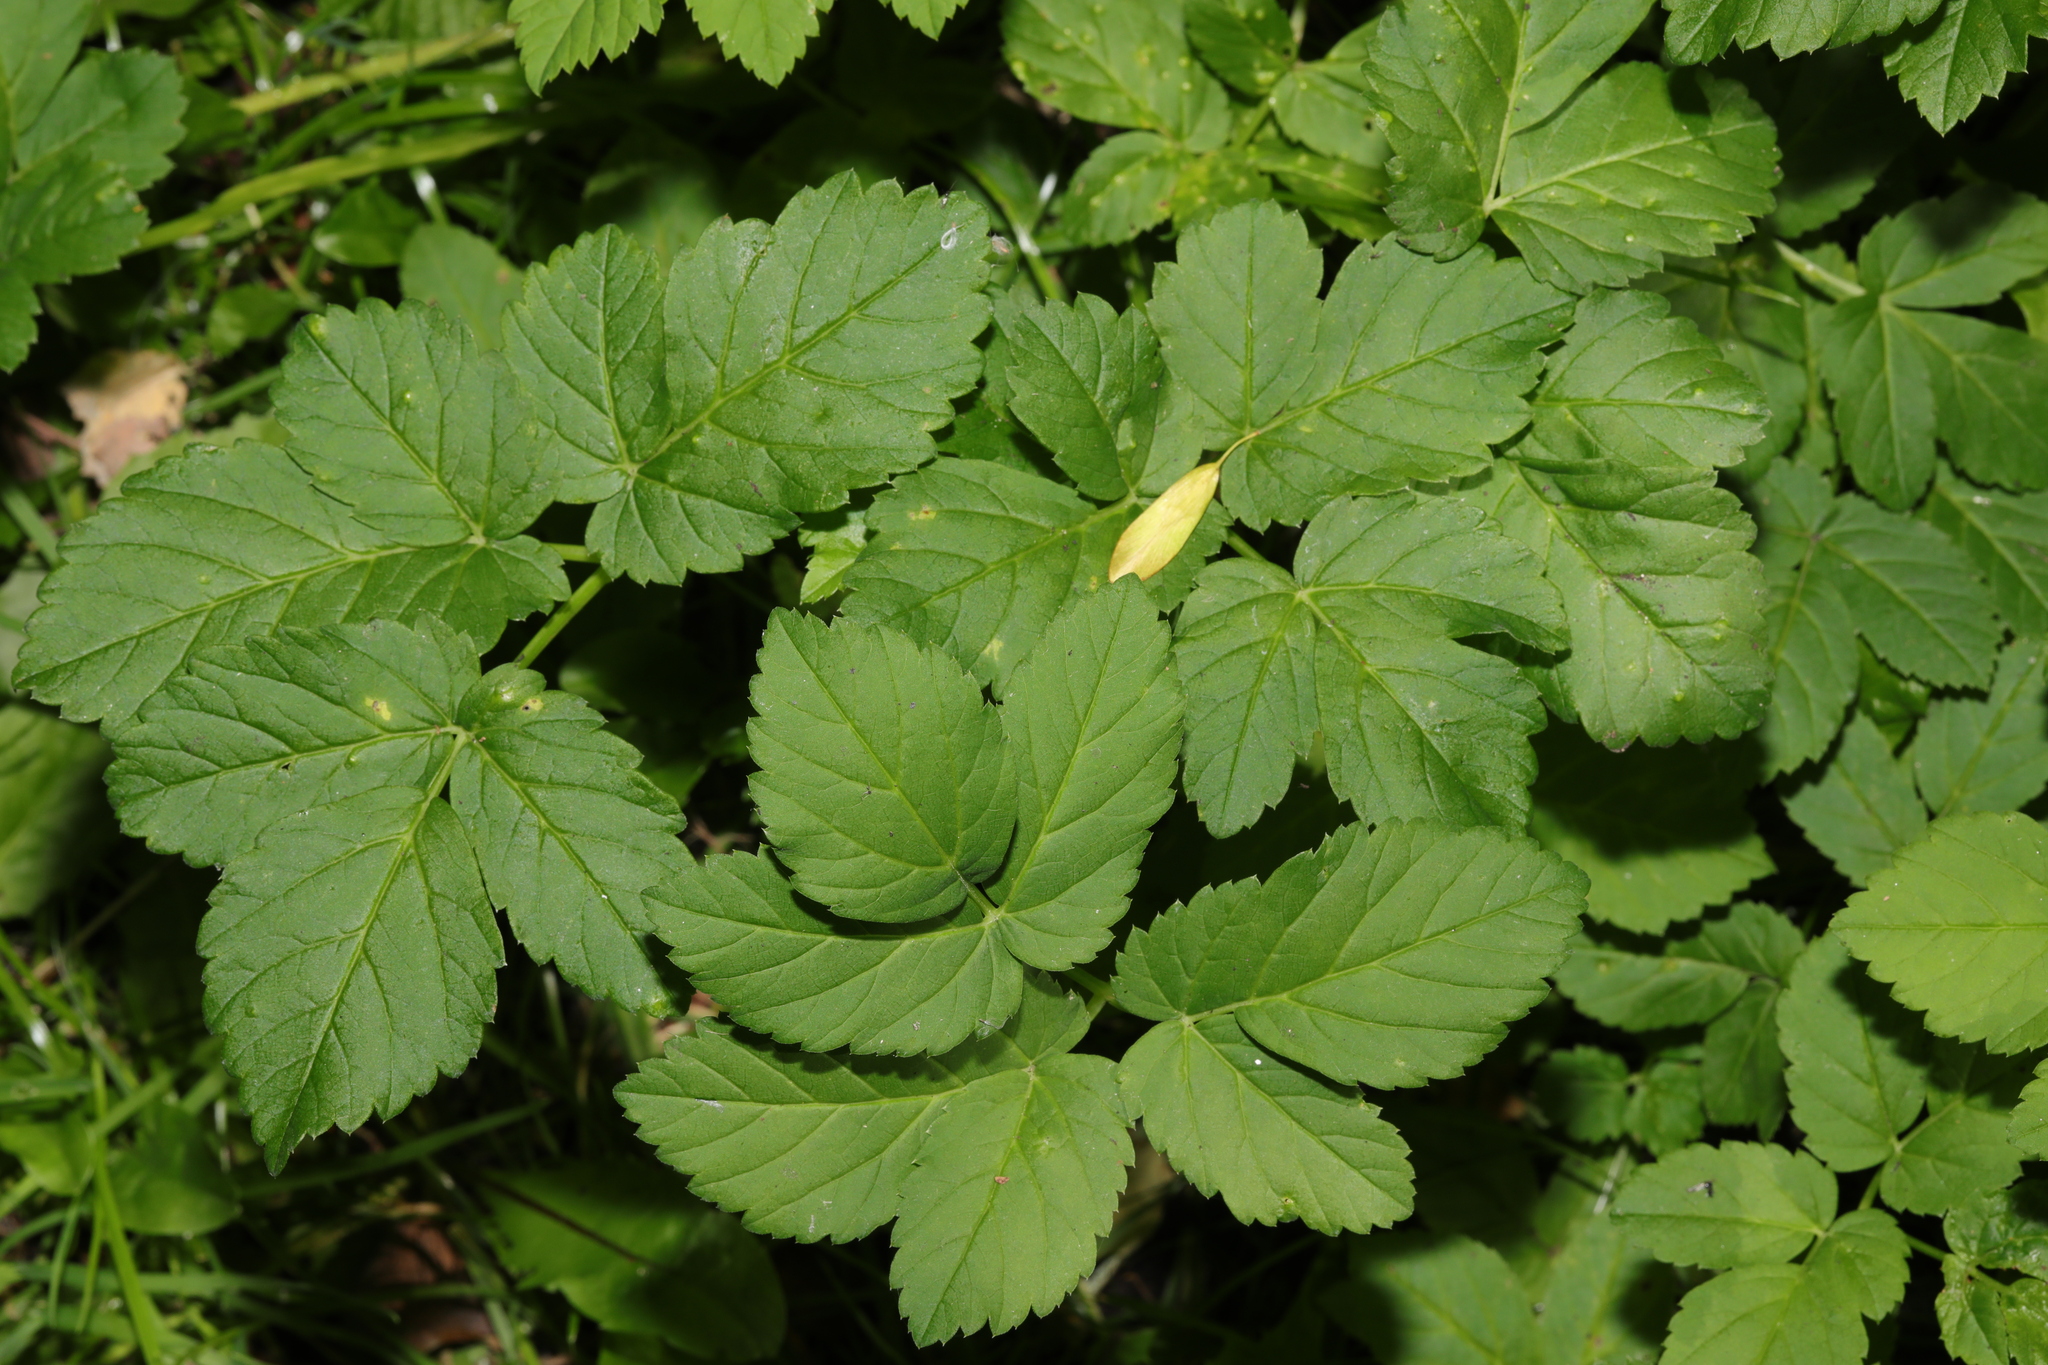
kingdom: Plantae
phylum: Tracheophyta
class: Magnoliopsida
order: Apiales
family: Apiaceae
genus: Aegopodium
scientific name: Aegopodium podagraria
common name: Ground-elder
